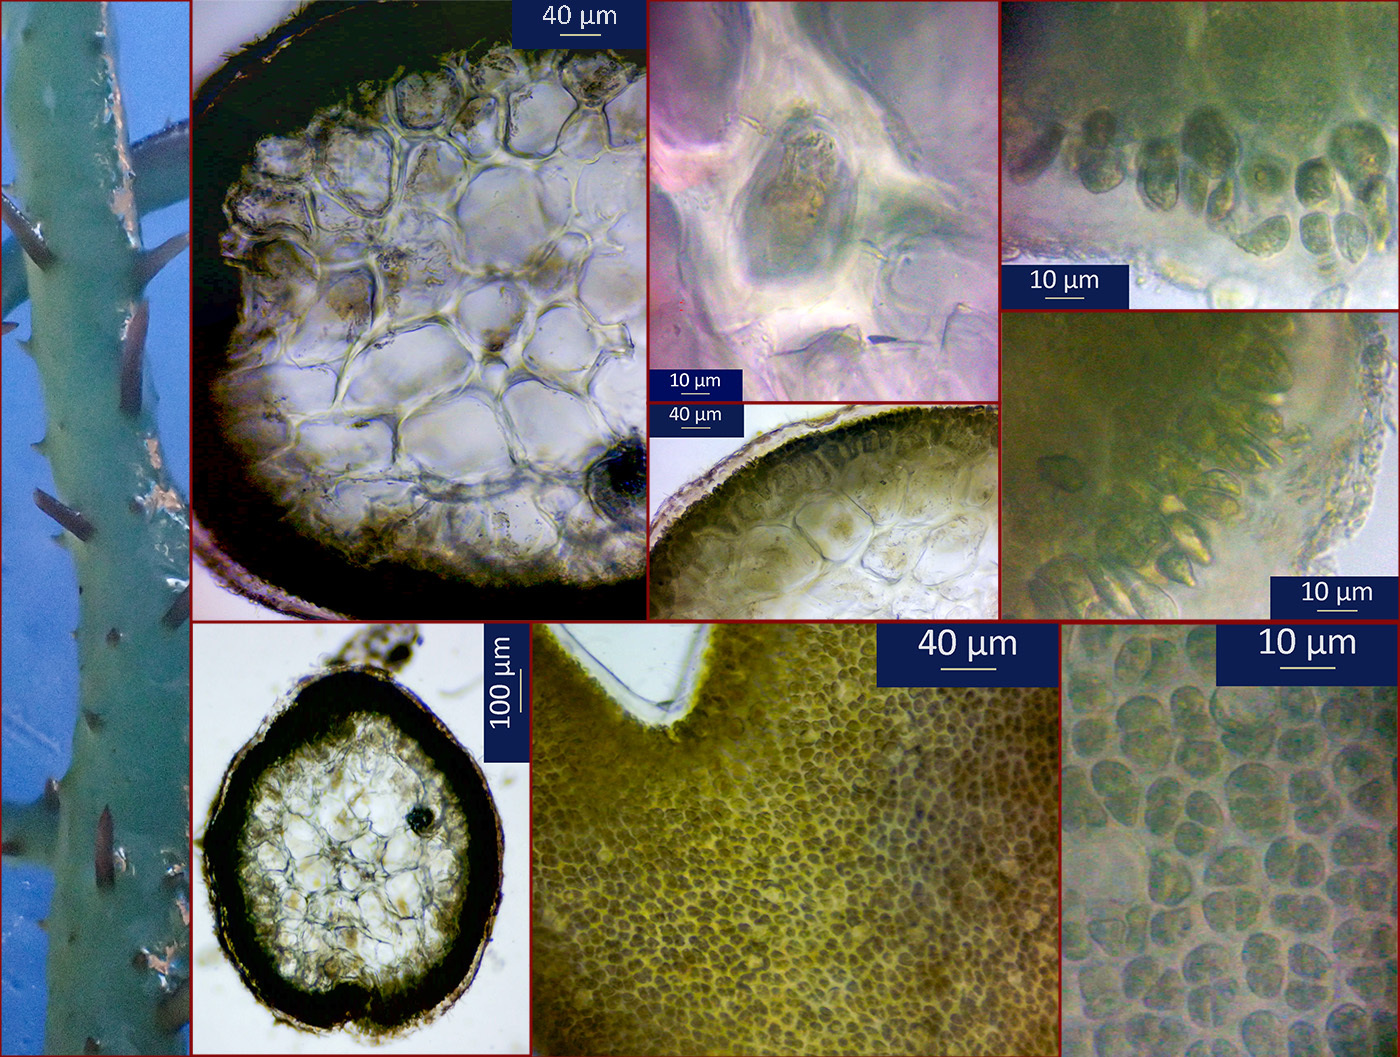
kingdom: Plantae
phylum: Rhodophyta
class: Florideophyceae
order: Gigartinales
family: Cystocloniaceae
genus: Hypnea
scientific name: Hypnea musciformis
